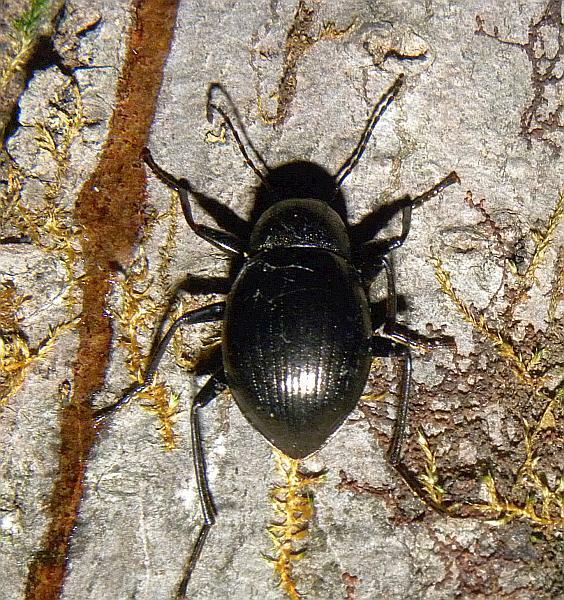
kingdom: Animalia
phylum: Arthropoda
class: Insecta
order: Coleoptera
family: Tenebrionidae
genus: Meracantha
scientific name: Meracantha contracta
